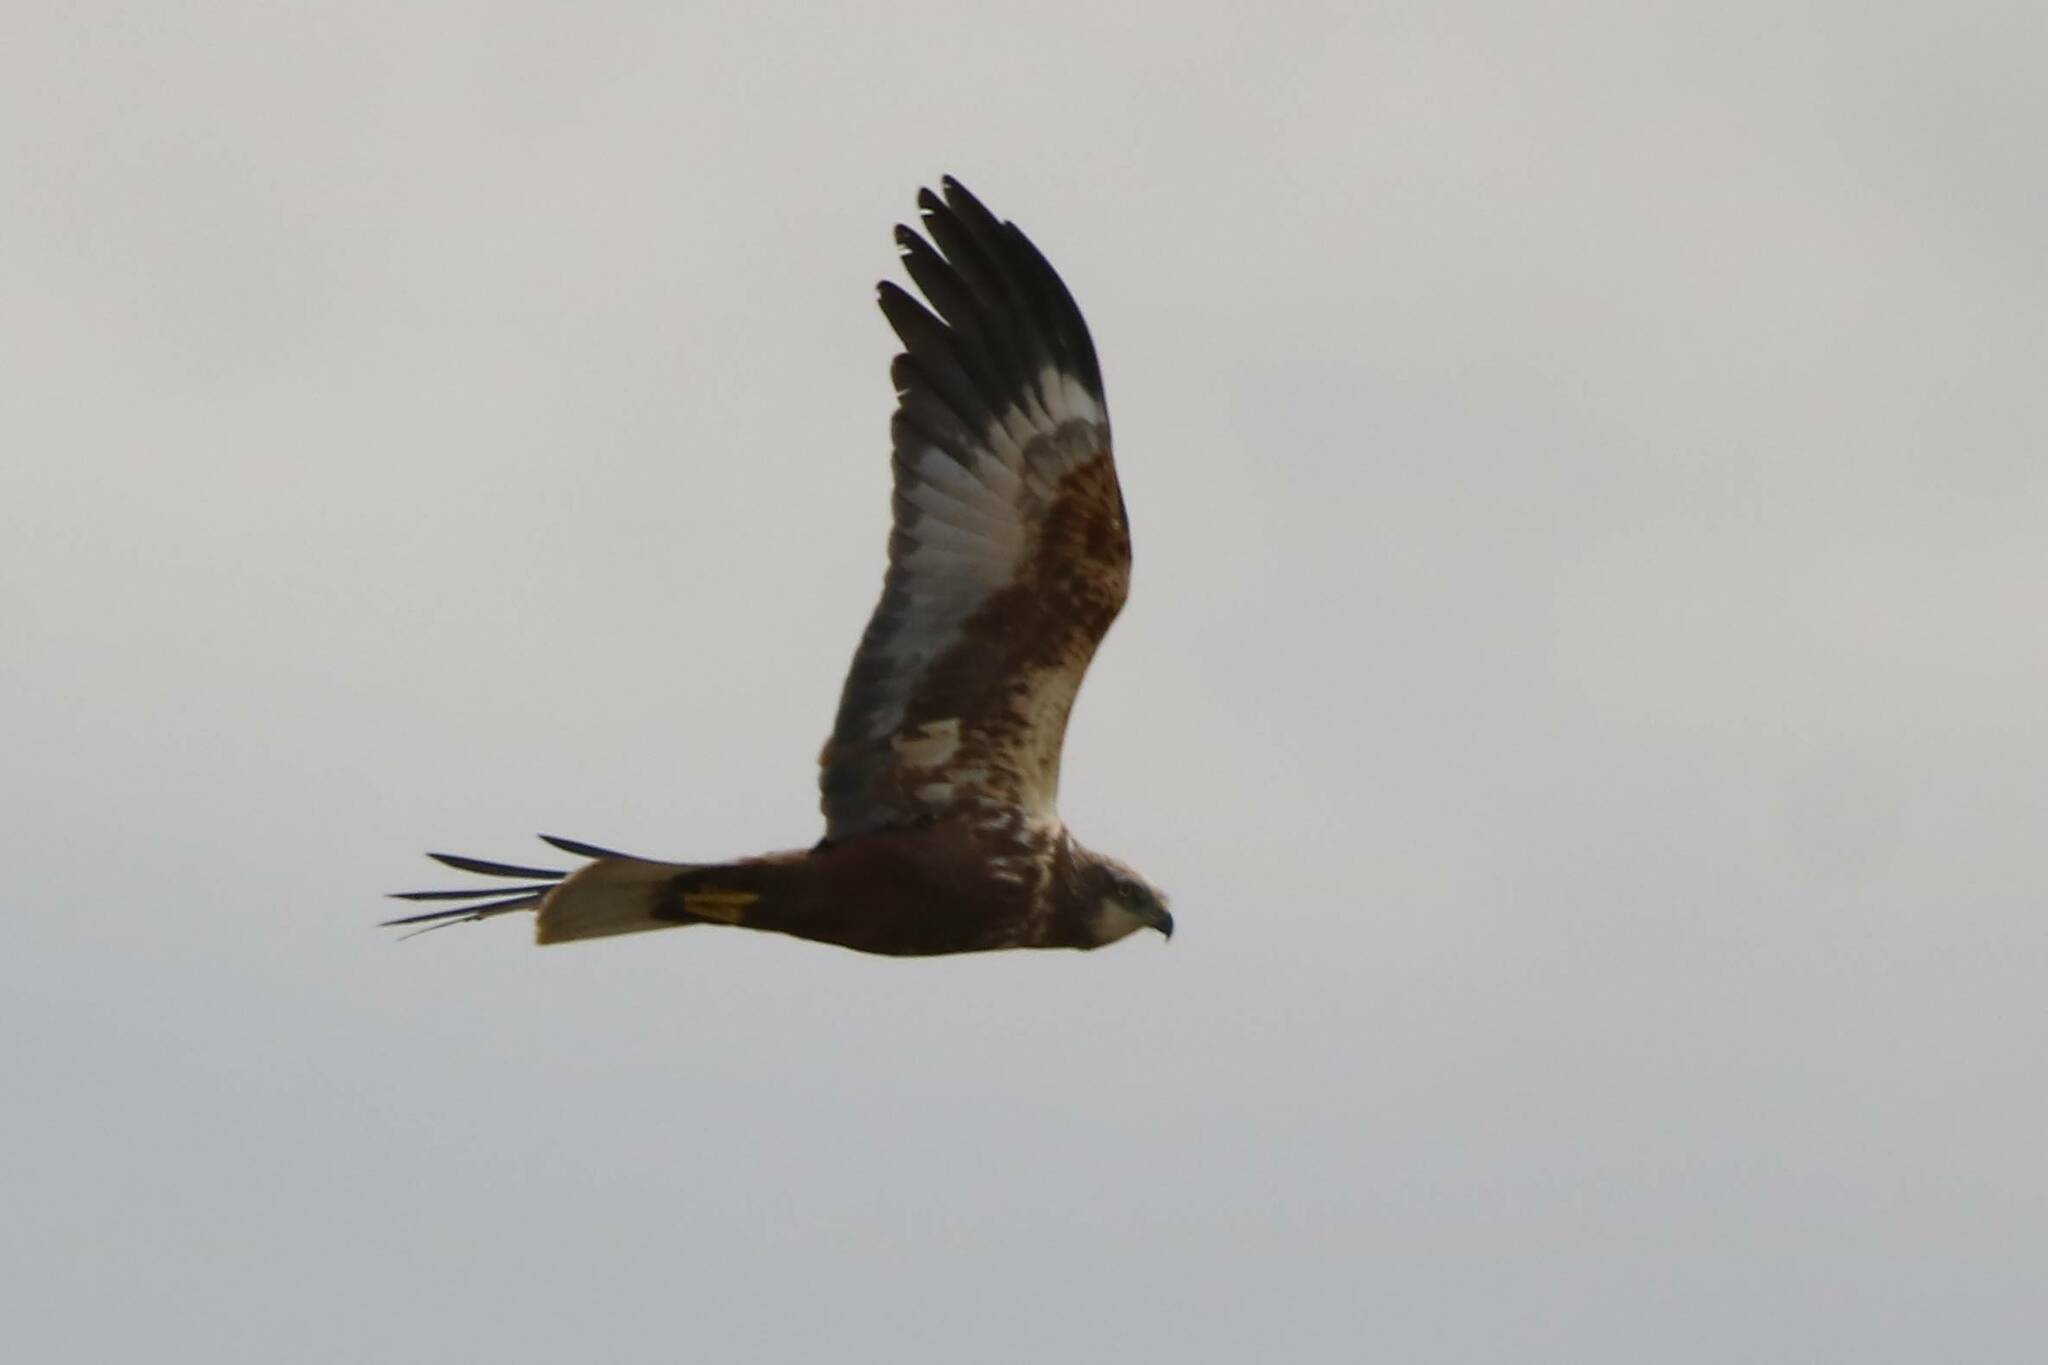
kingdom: Animalia
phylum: Chordata
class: Aves
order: Accipitriformes
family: Accipitridae
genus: Circus
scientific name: Circus aeruginosus
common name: Western marsh harrier
